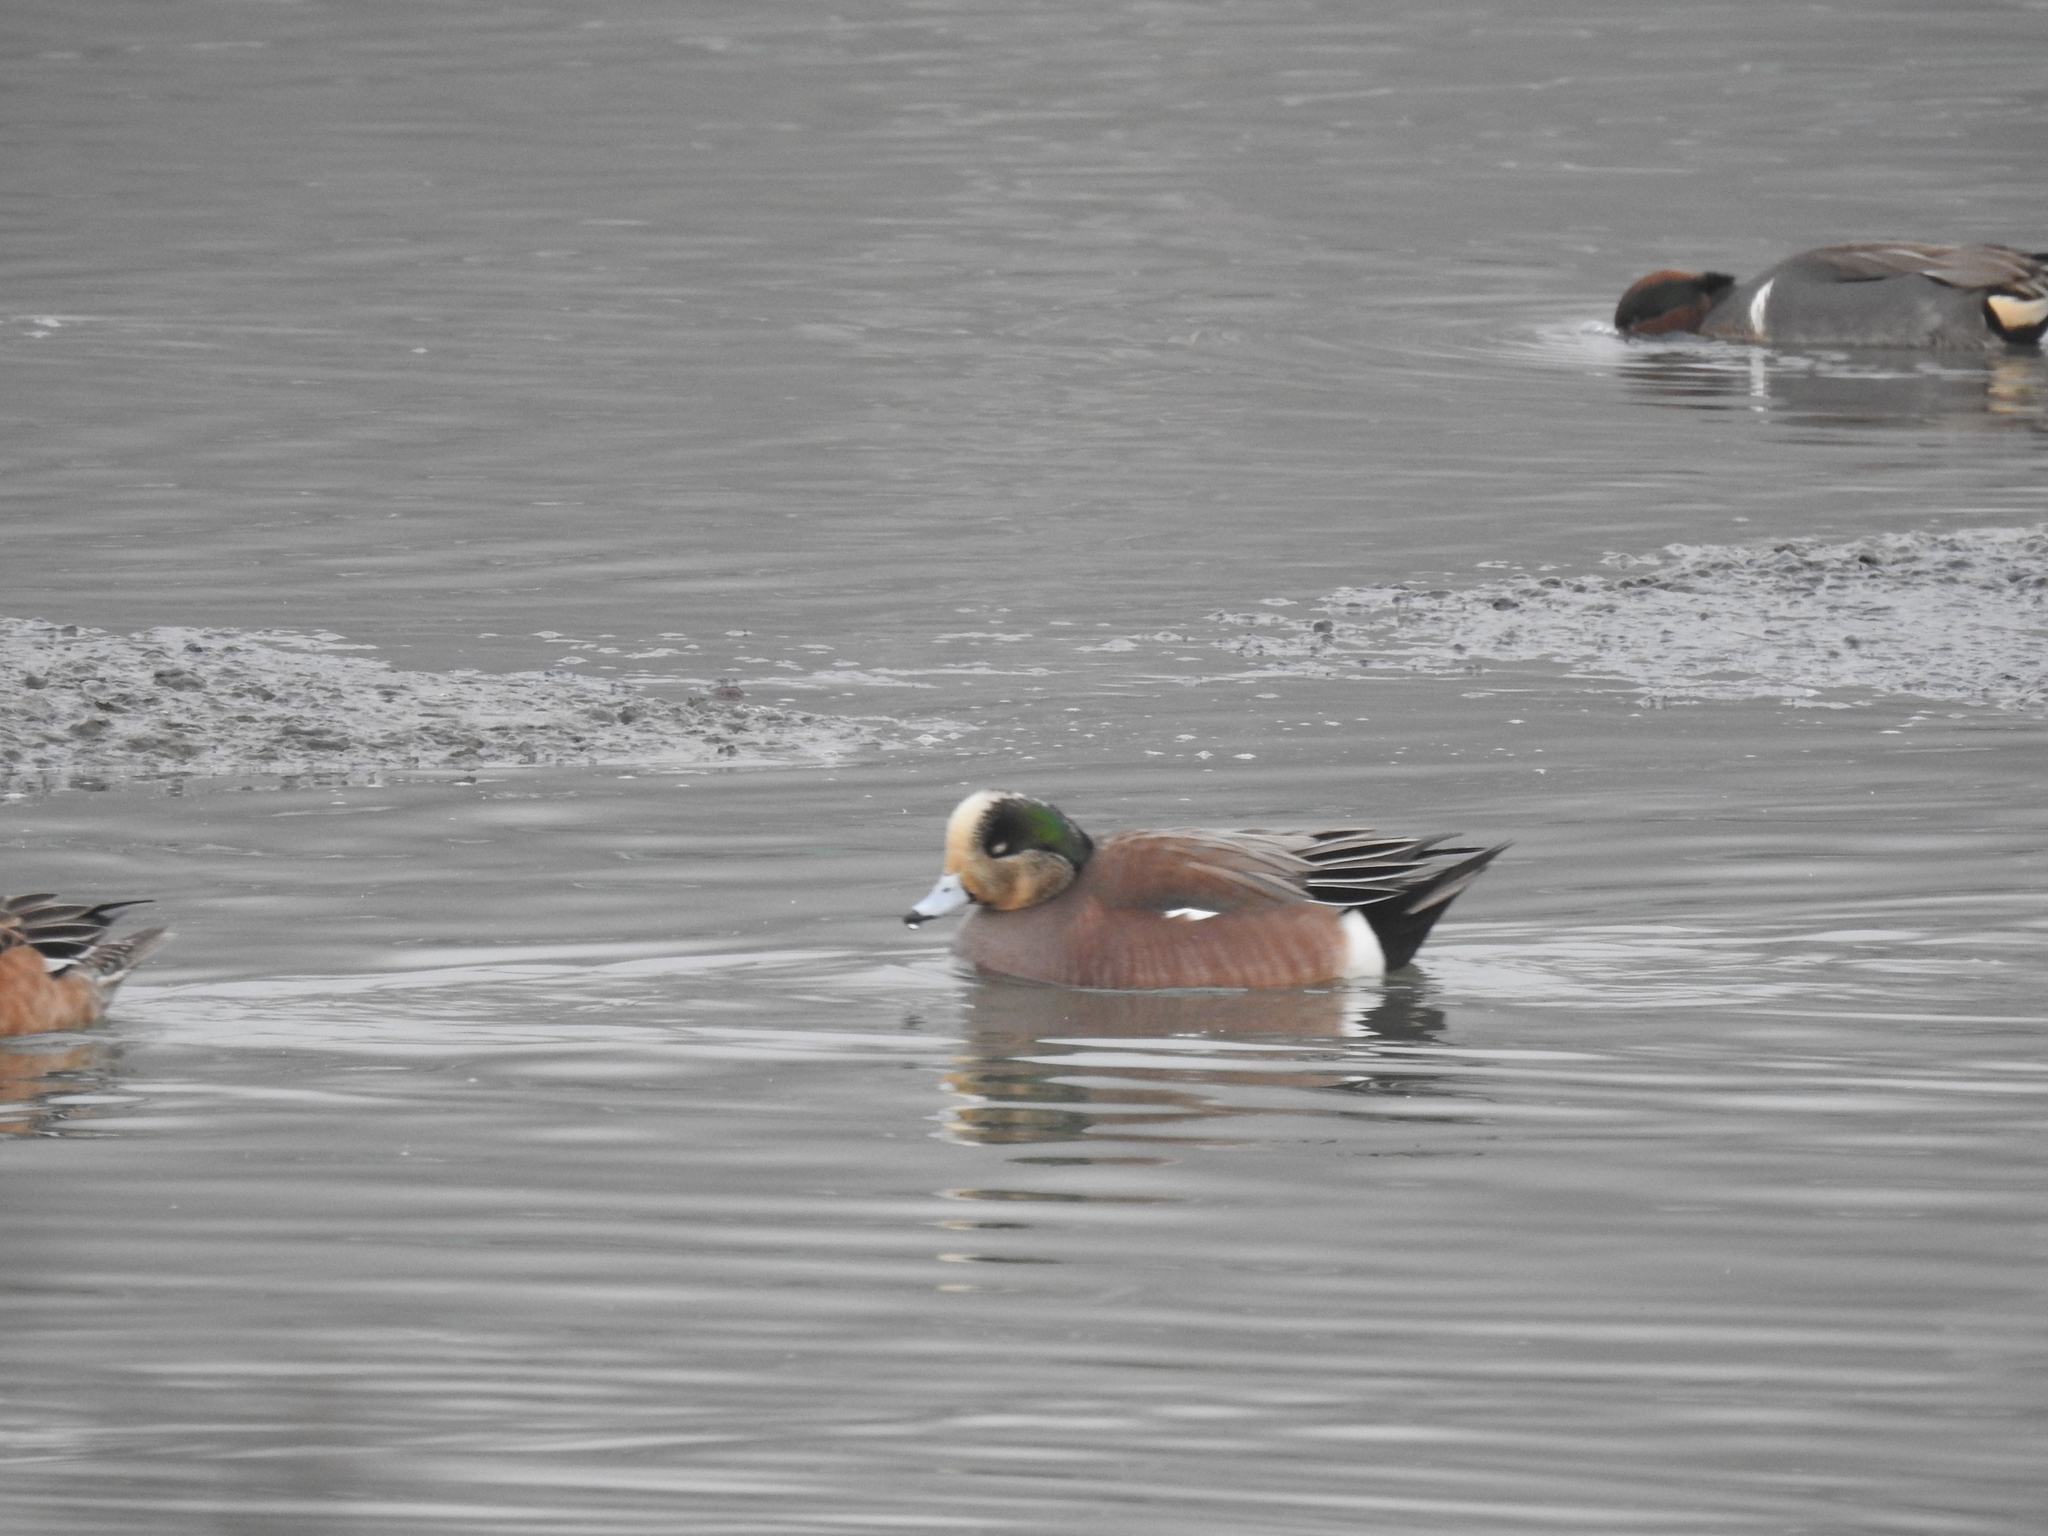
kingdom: Animalia
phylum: Chordata
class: Aves
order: Anseriformes
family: Anatidae
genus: Mareca
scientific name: Mareca americana
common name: American wigeon
